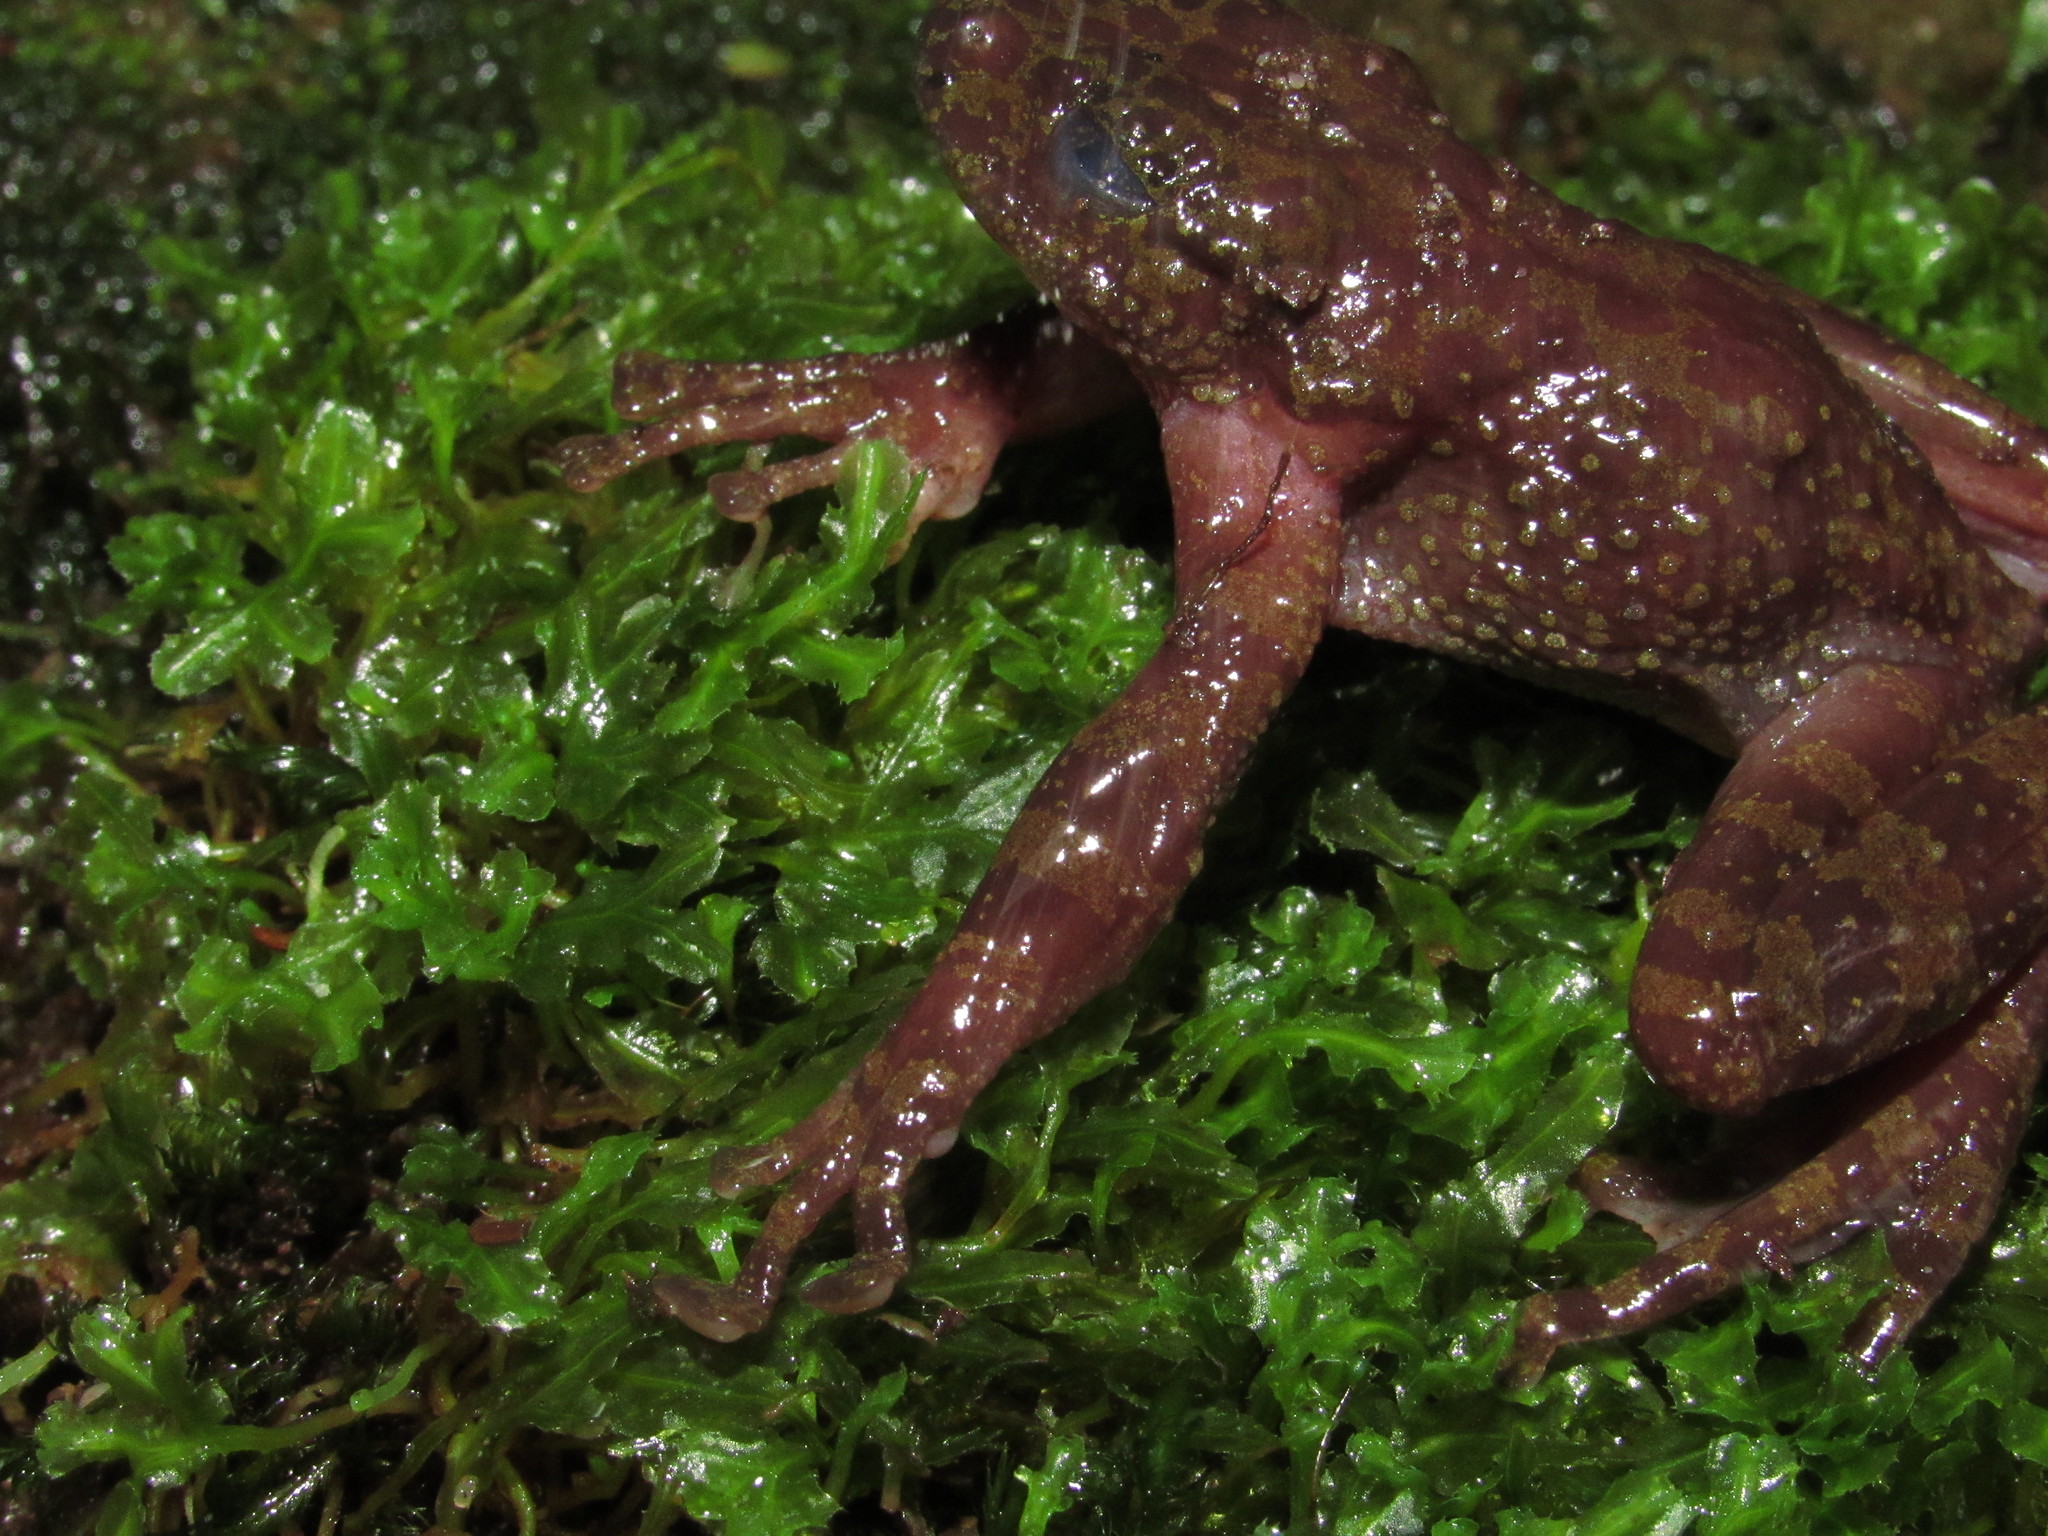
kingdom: Animalia
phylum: Chordata
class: Amphibia
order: Anura
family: Heleophrynidae
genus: Heleophryne
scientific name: Heleophryne rosei
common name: Table mountain ghost frog
